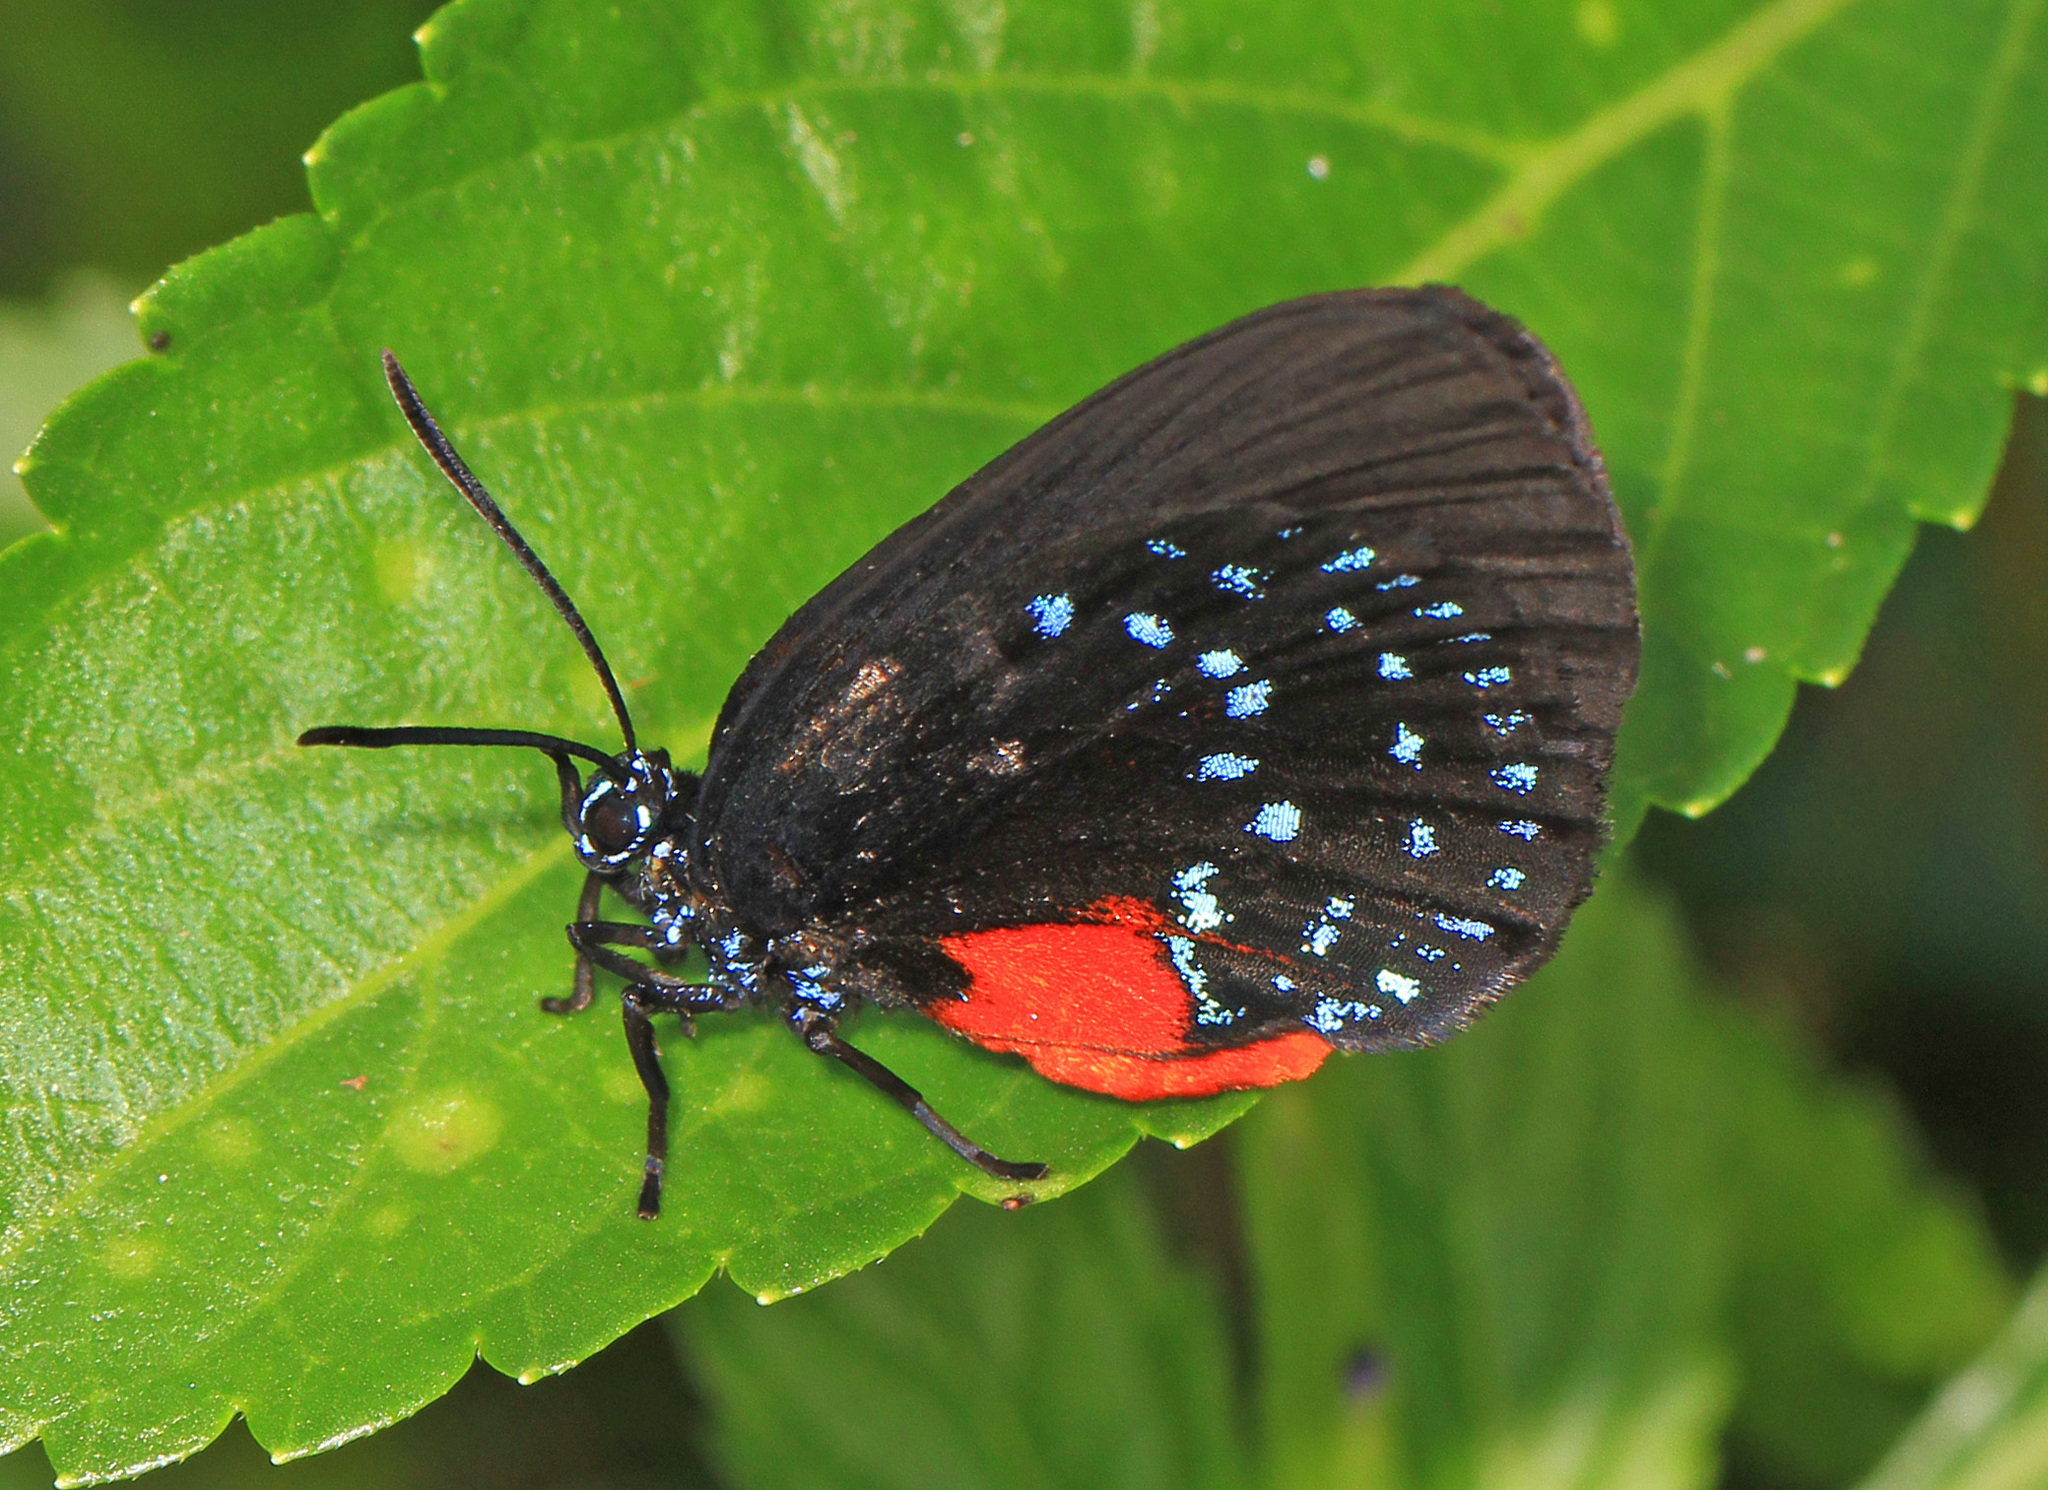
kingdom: Animalia
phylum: Arthropoda
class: Insecta
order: Lepidoptera
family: Lycaenidae
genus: Eumaeus
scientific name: Eumaeus atala
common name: Atala
